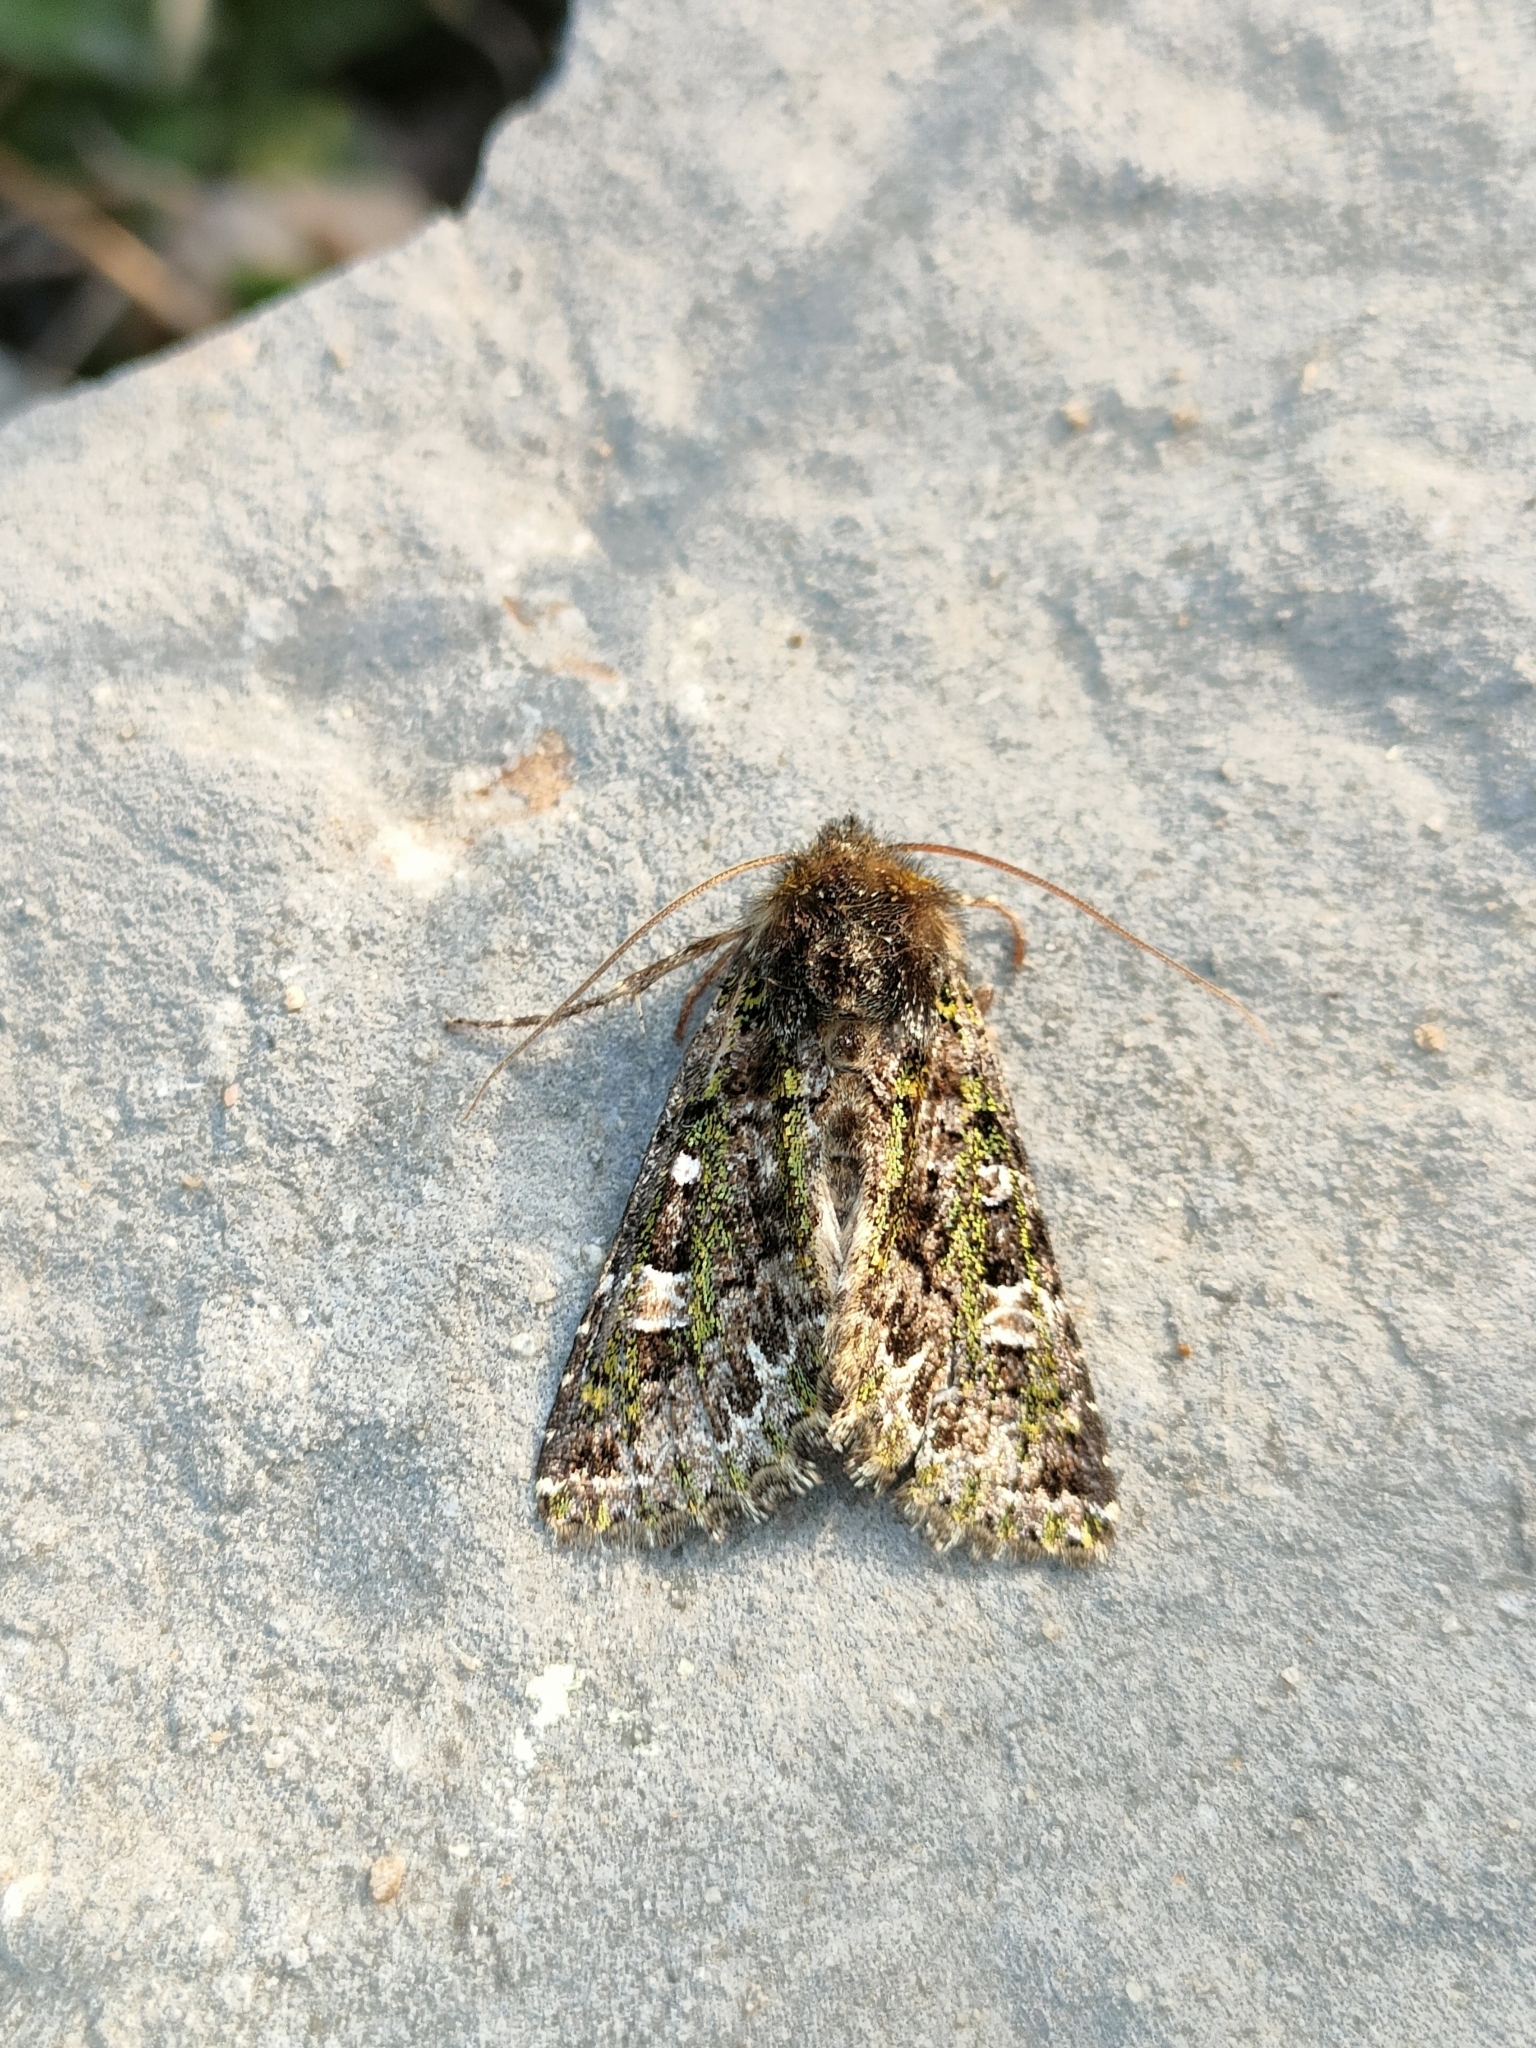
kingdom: Animalia
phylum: Arthropoda
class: Insecta
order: Lepidoptera
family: Noctuidae
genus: Valeria
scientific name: Valeria jaspidea
